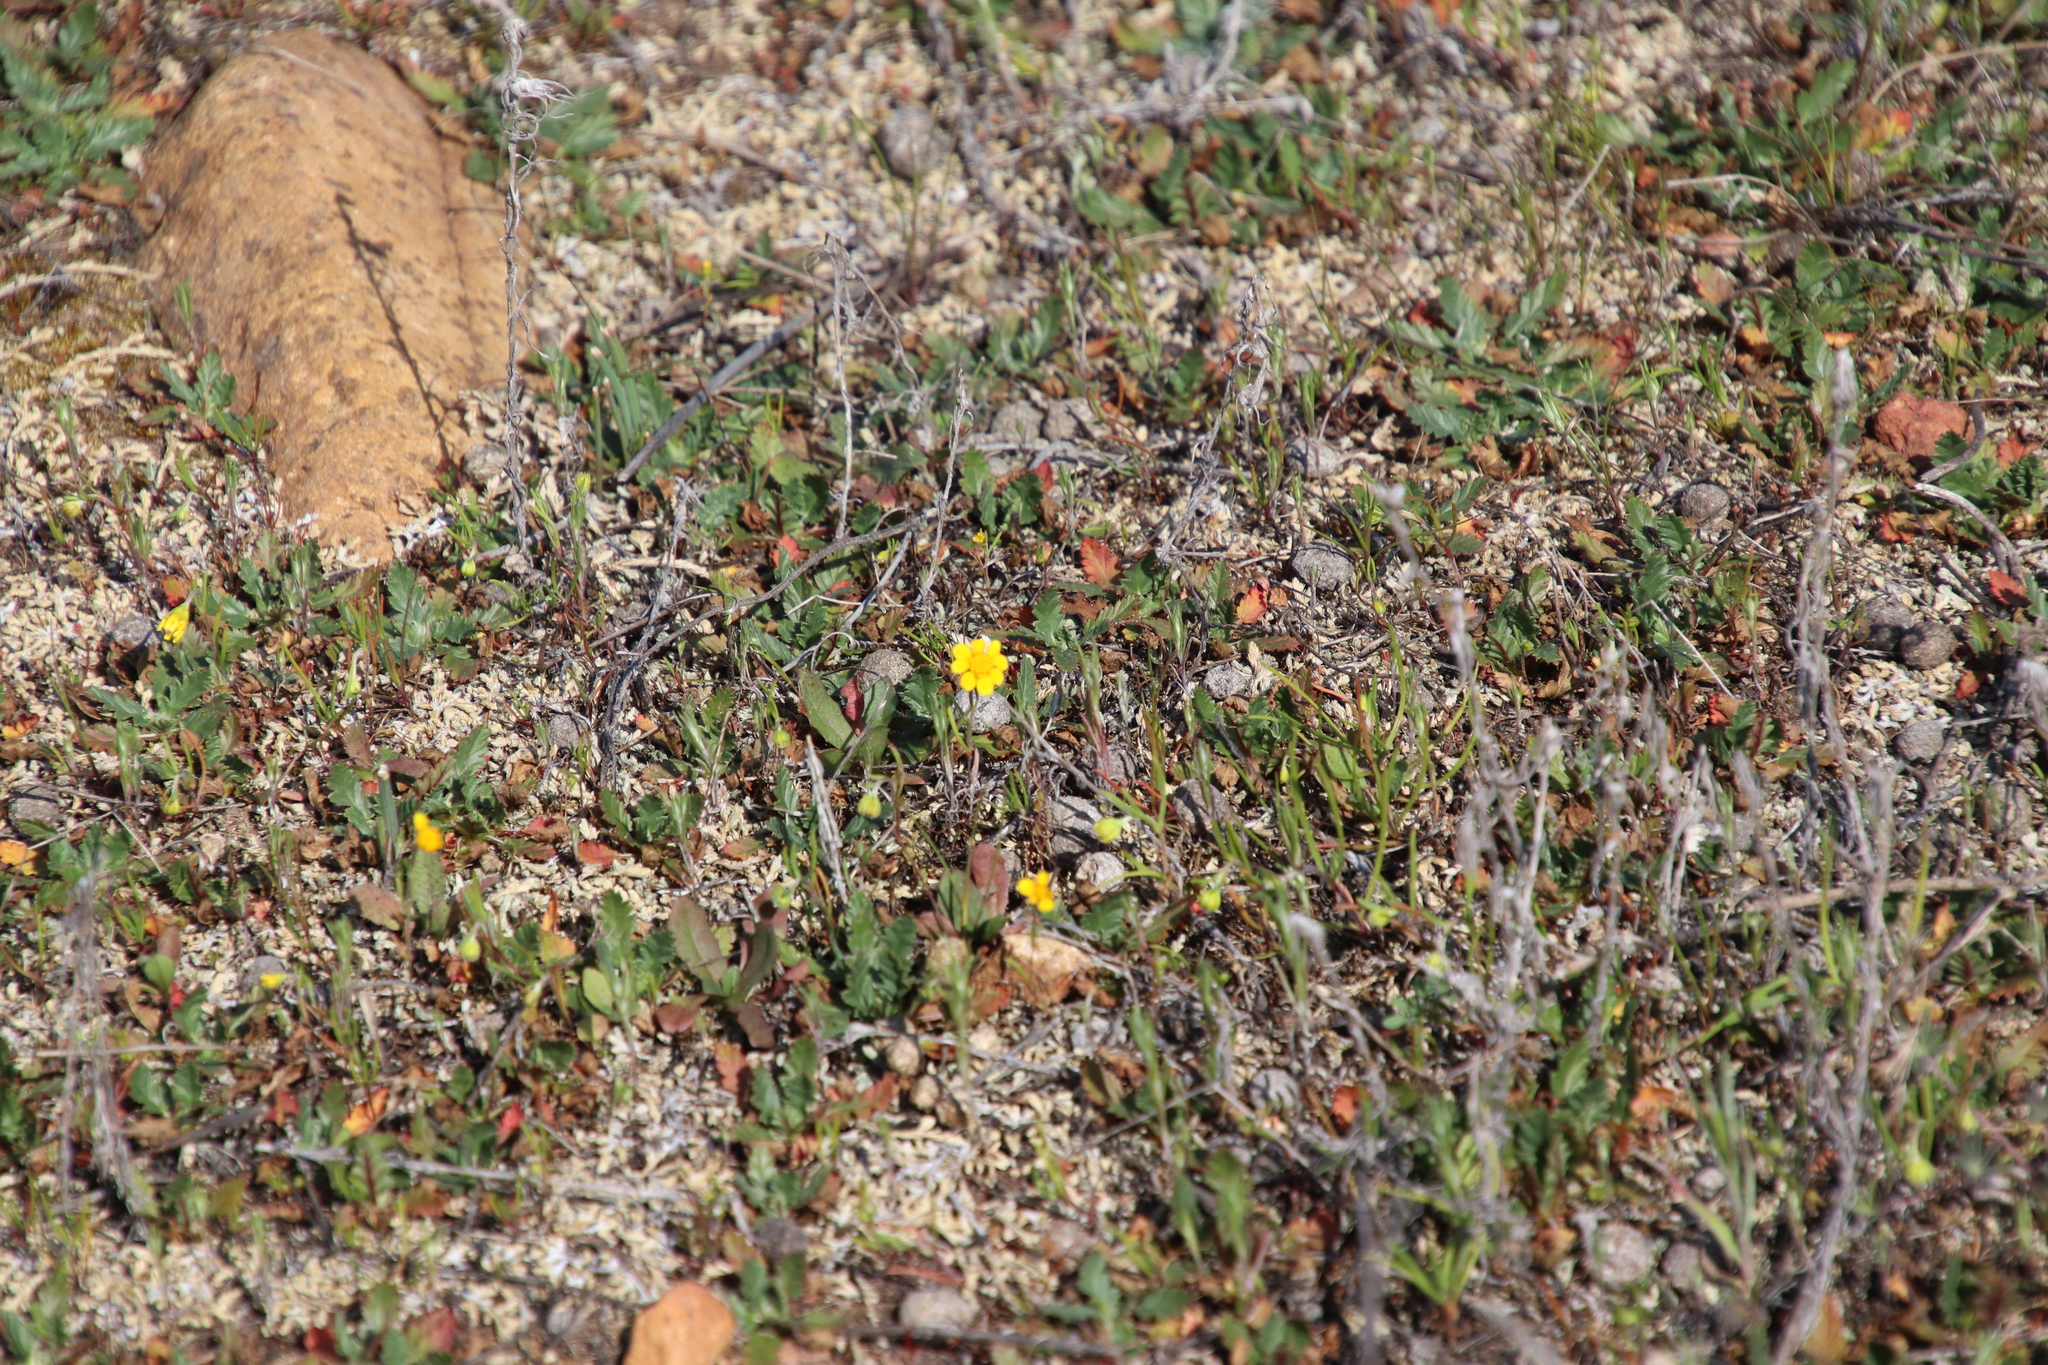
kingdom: Plantae
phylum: Tracheophyta
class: Magnoliopsida
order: Asterales
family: Asteraceae
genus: Lasthenia
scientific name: Lasthenia gracilis
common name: Common goldfields
